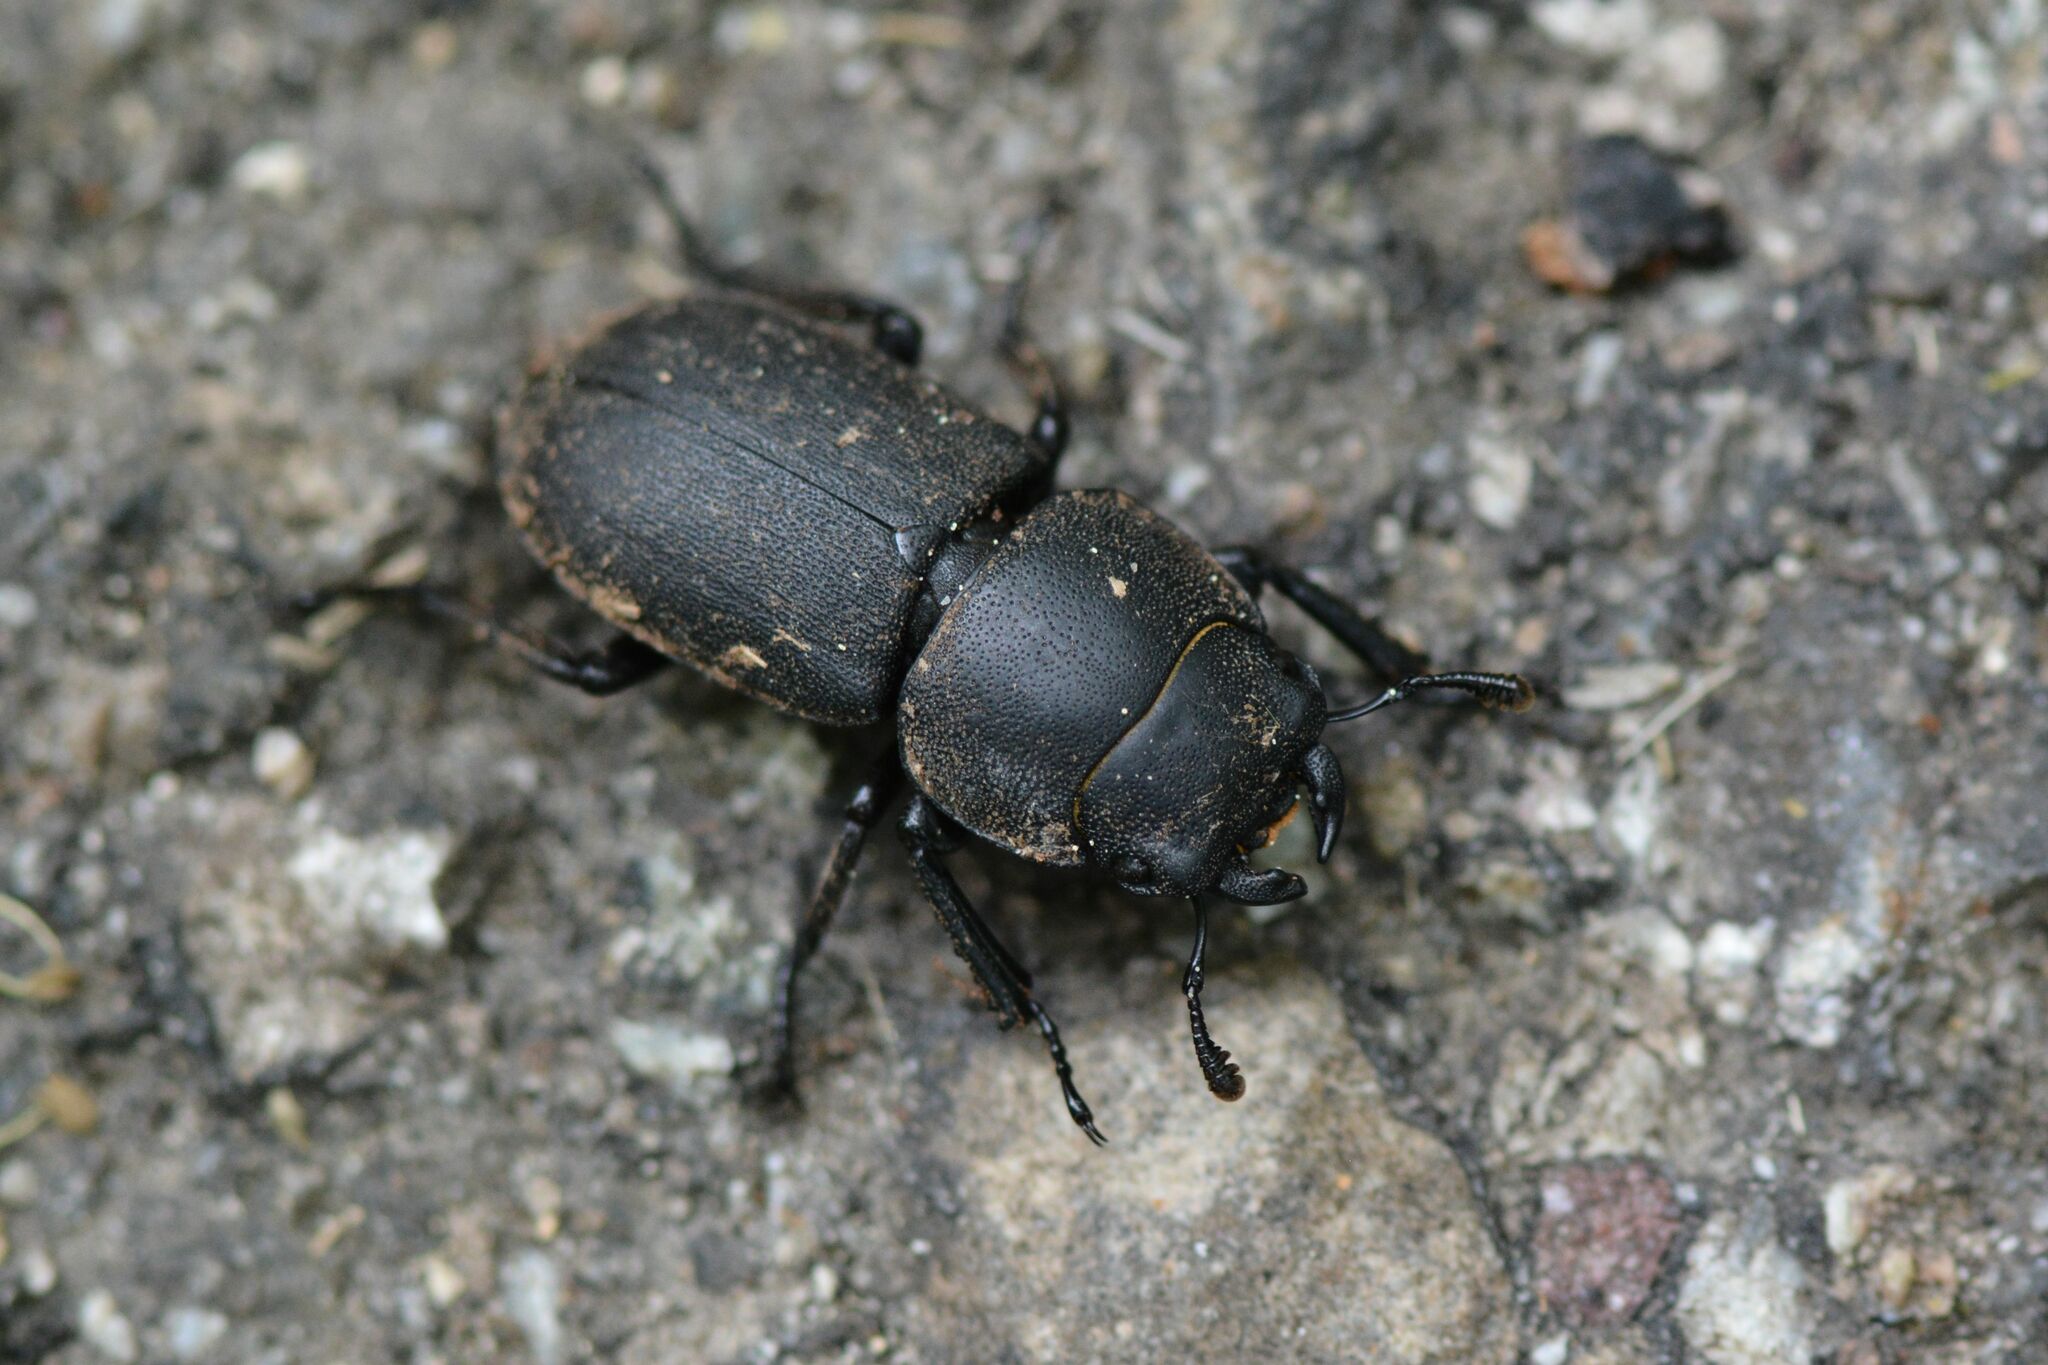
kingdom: Animalia
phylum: Arthropoda
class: Insecta
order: Coleoptera
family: Lucanidae
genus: Dorcus
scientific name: Dorcus parallelipipedus
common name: Lesser stag beetle
